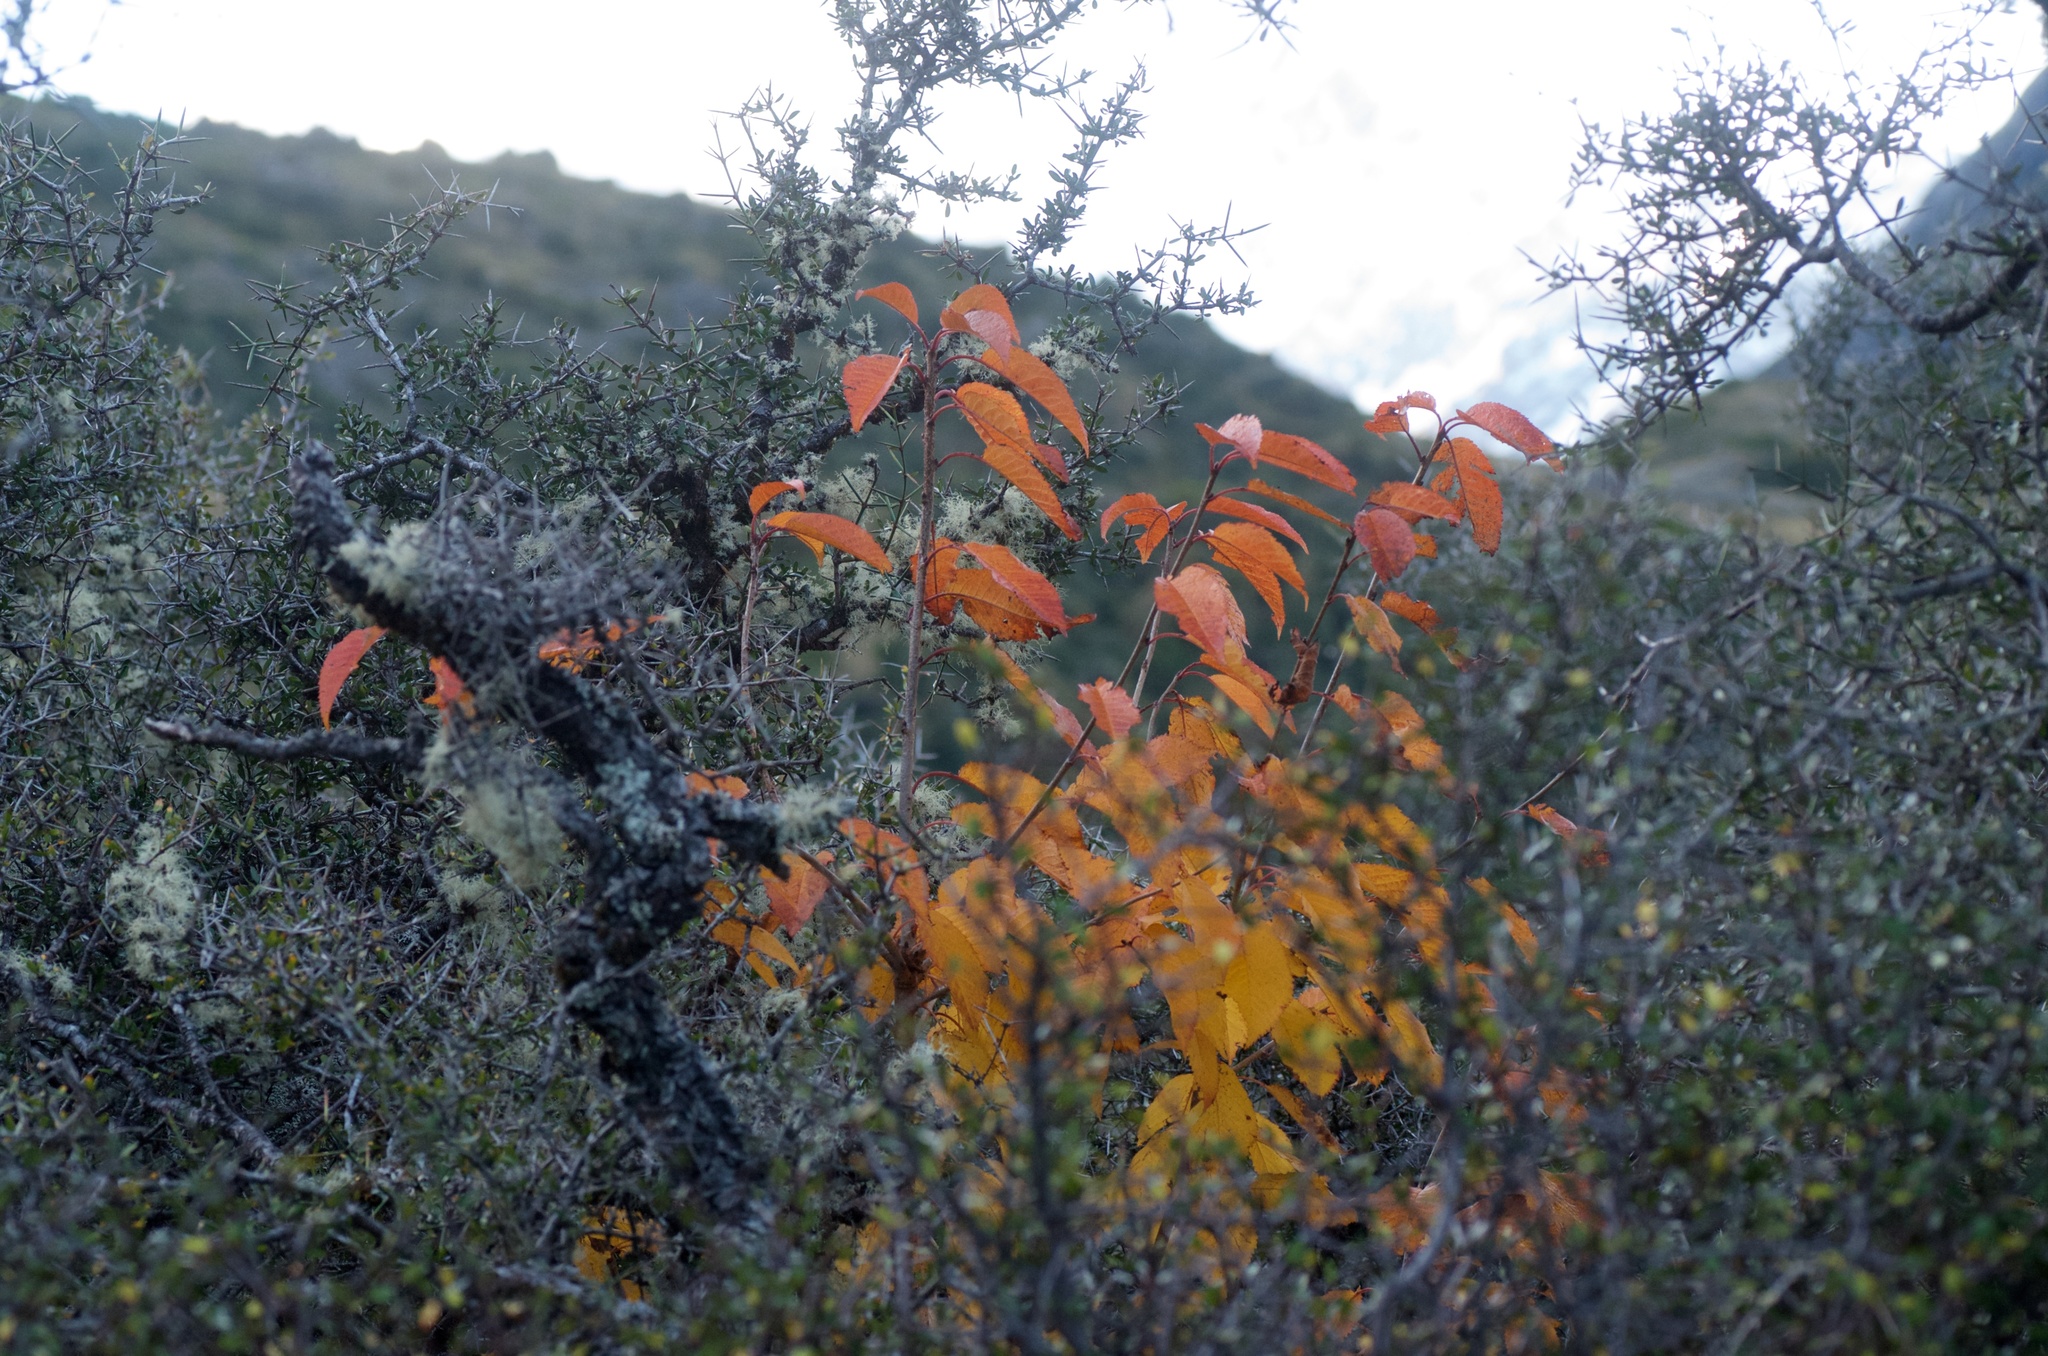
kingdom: Plantae
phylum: Tracheophyta
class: Magnoliopsida
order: Rosales
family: Rosaceae
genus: Prunus
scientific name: Prunus avium
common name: Sweet cherry
